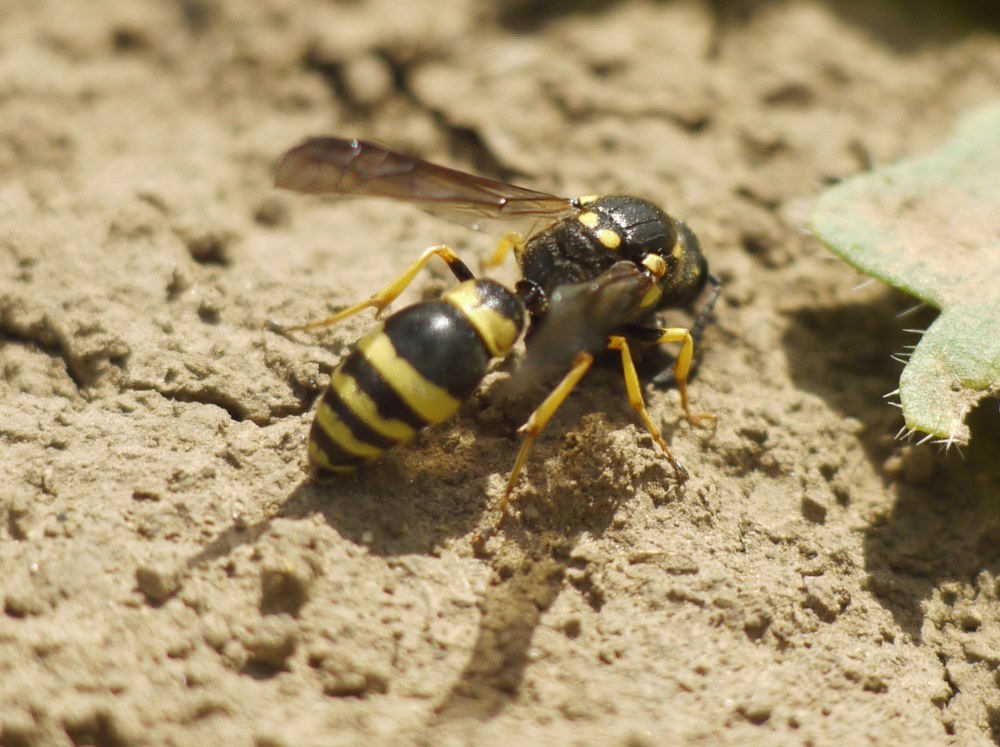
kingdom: Animalia
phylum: Arthropoda
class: Insecta
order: Hymenoptera
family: Eumenidae
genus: Symmorphus
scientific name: Symmorphus crassicornis
